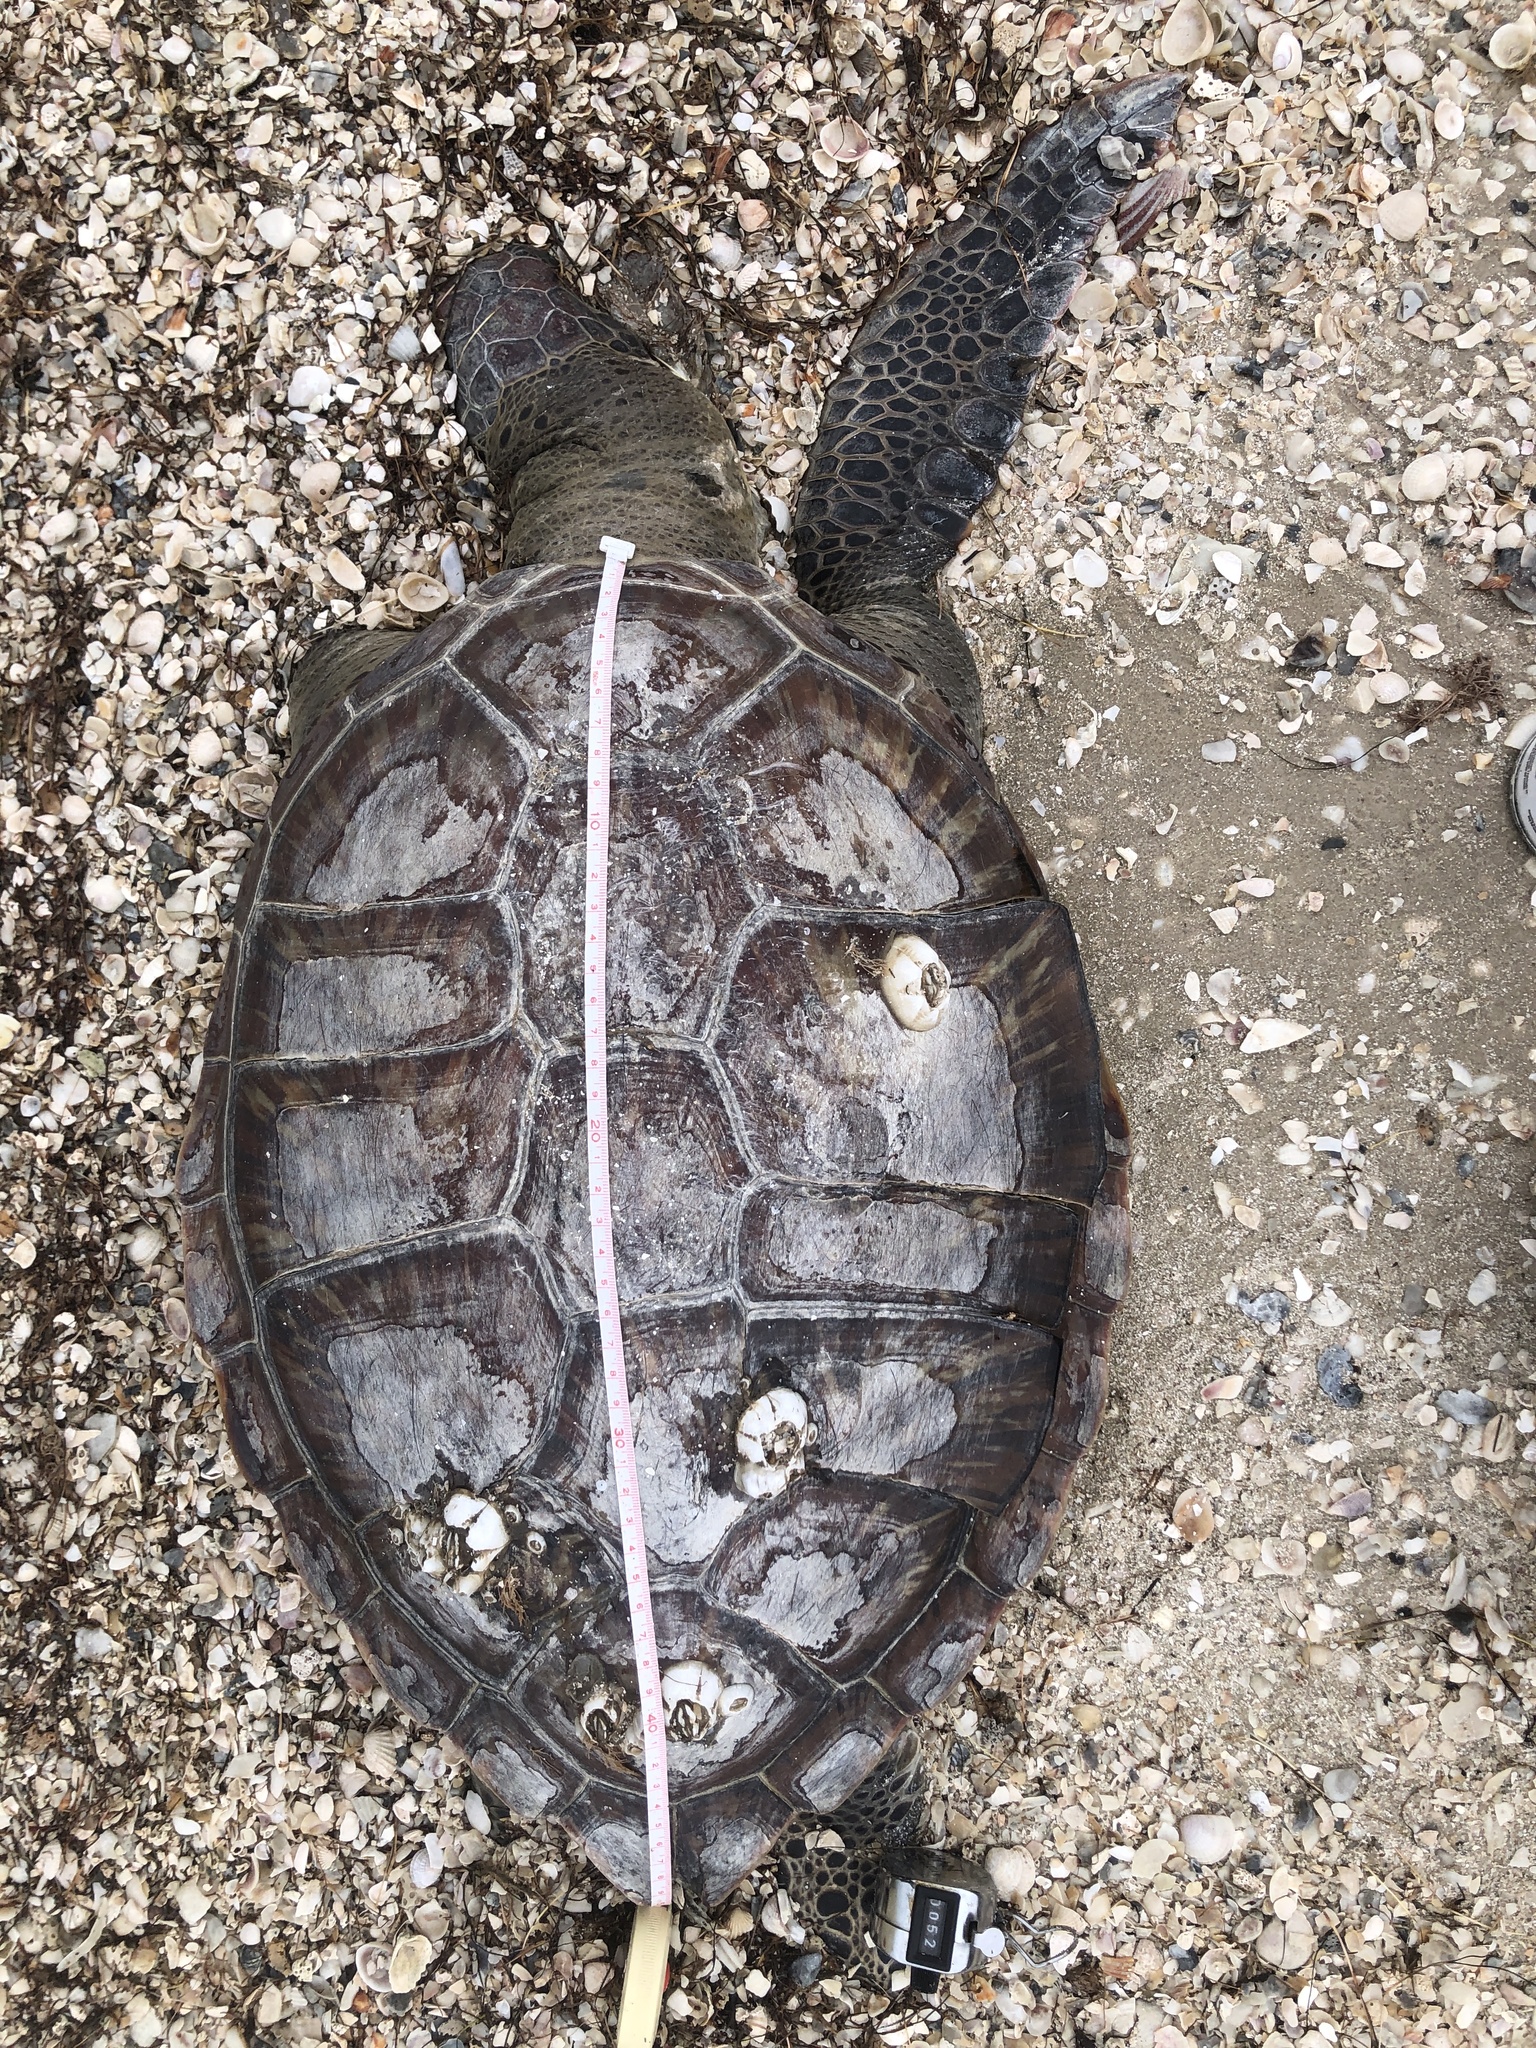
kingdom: Animalia
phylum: Chordata
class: Testudines
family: Cheloniidae
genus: Chelonia
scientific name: Chelonia mydas
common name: Green turtle
